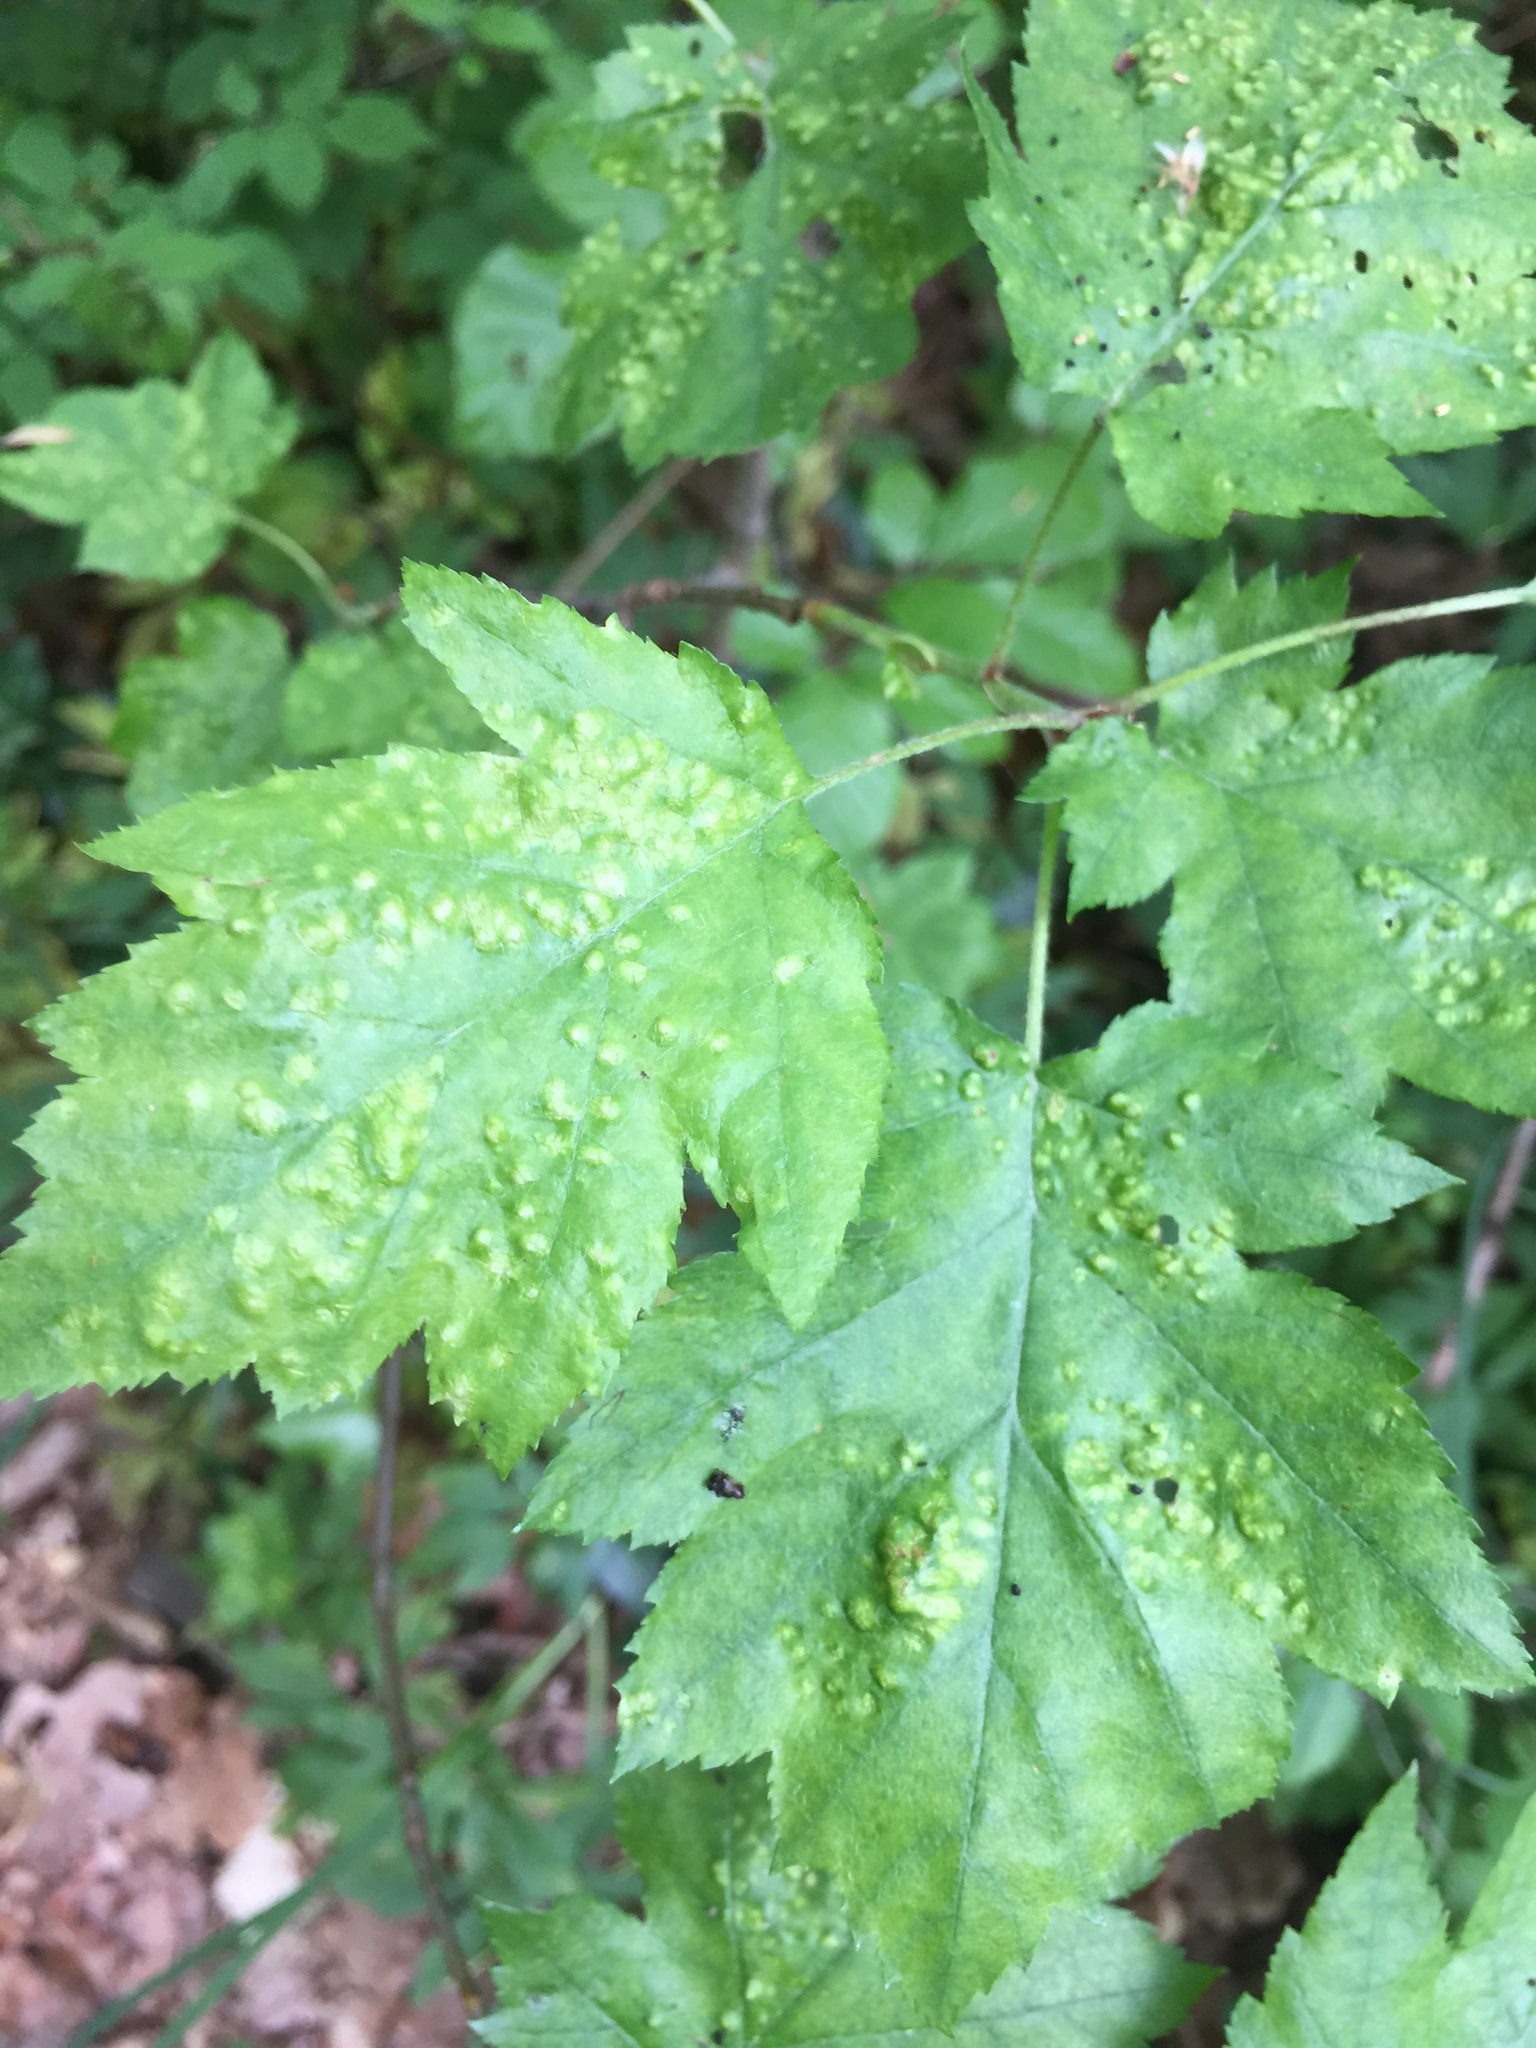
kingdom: Animalia
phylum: Arthropoda
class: Arachnida
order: Trombidiformes
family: Eriophyidae
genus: Eriophyes
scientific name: Eriophyes torminalis
